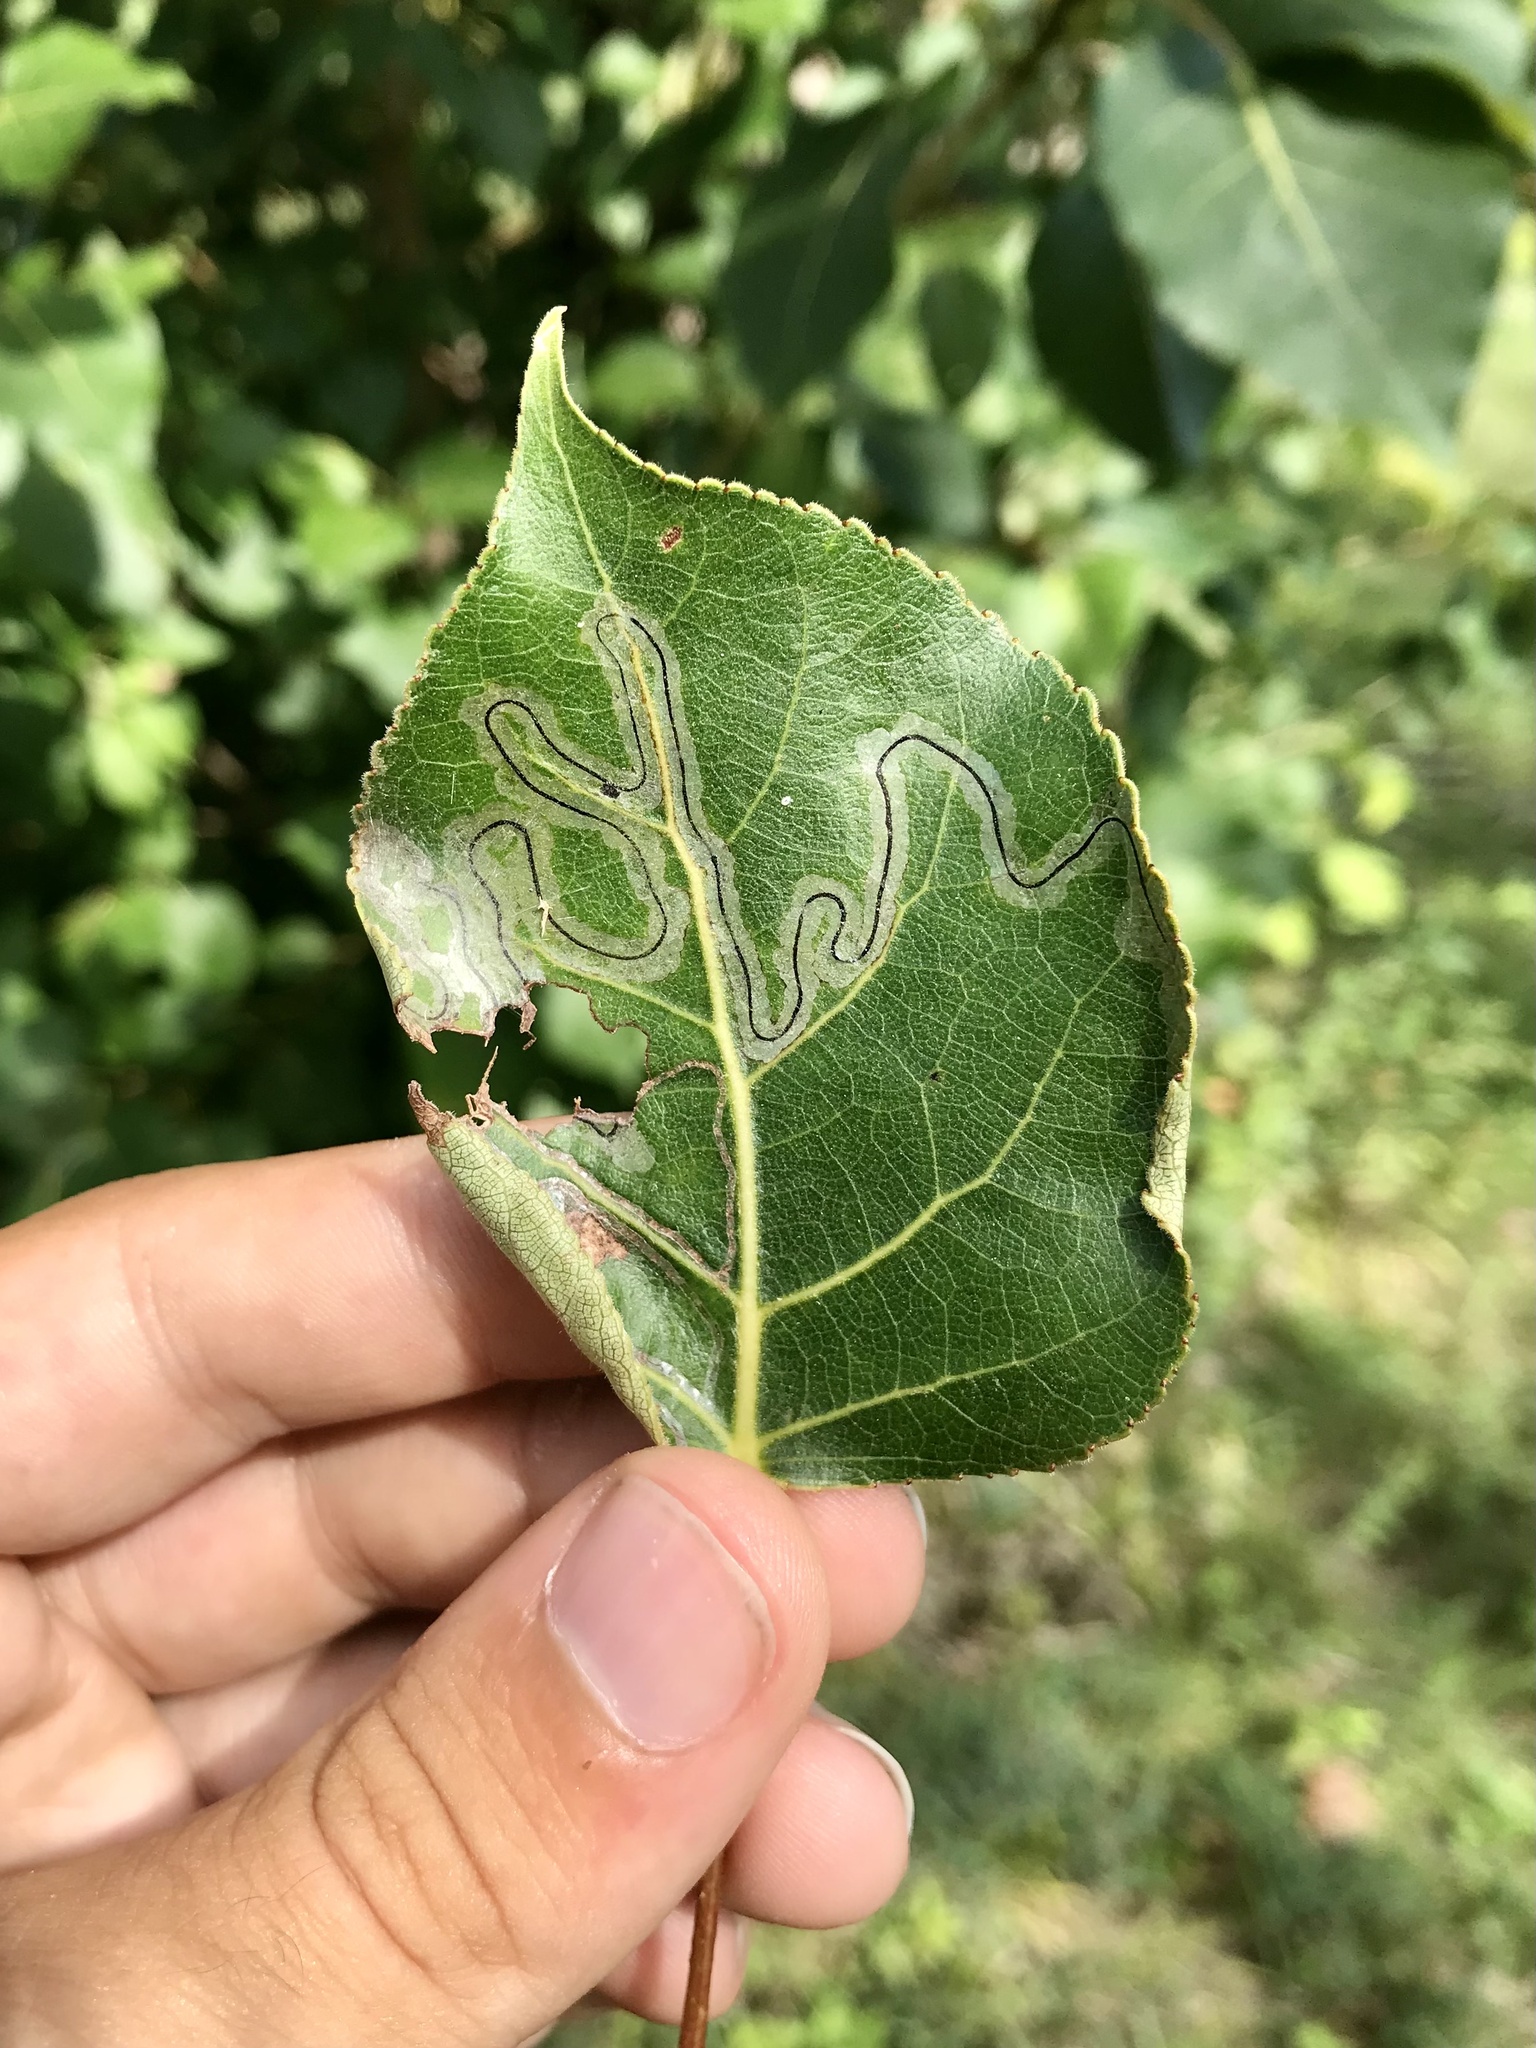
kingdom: Animalia
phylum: Arthropoda
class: Insecta
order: Lepidoptera
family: Gracillariidae
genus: Phyllocnistis
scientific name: Phyllocnistis populiella
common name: Aspen serpentine leafminer moth
